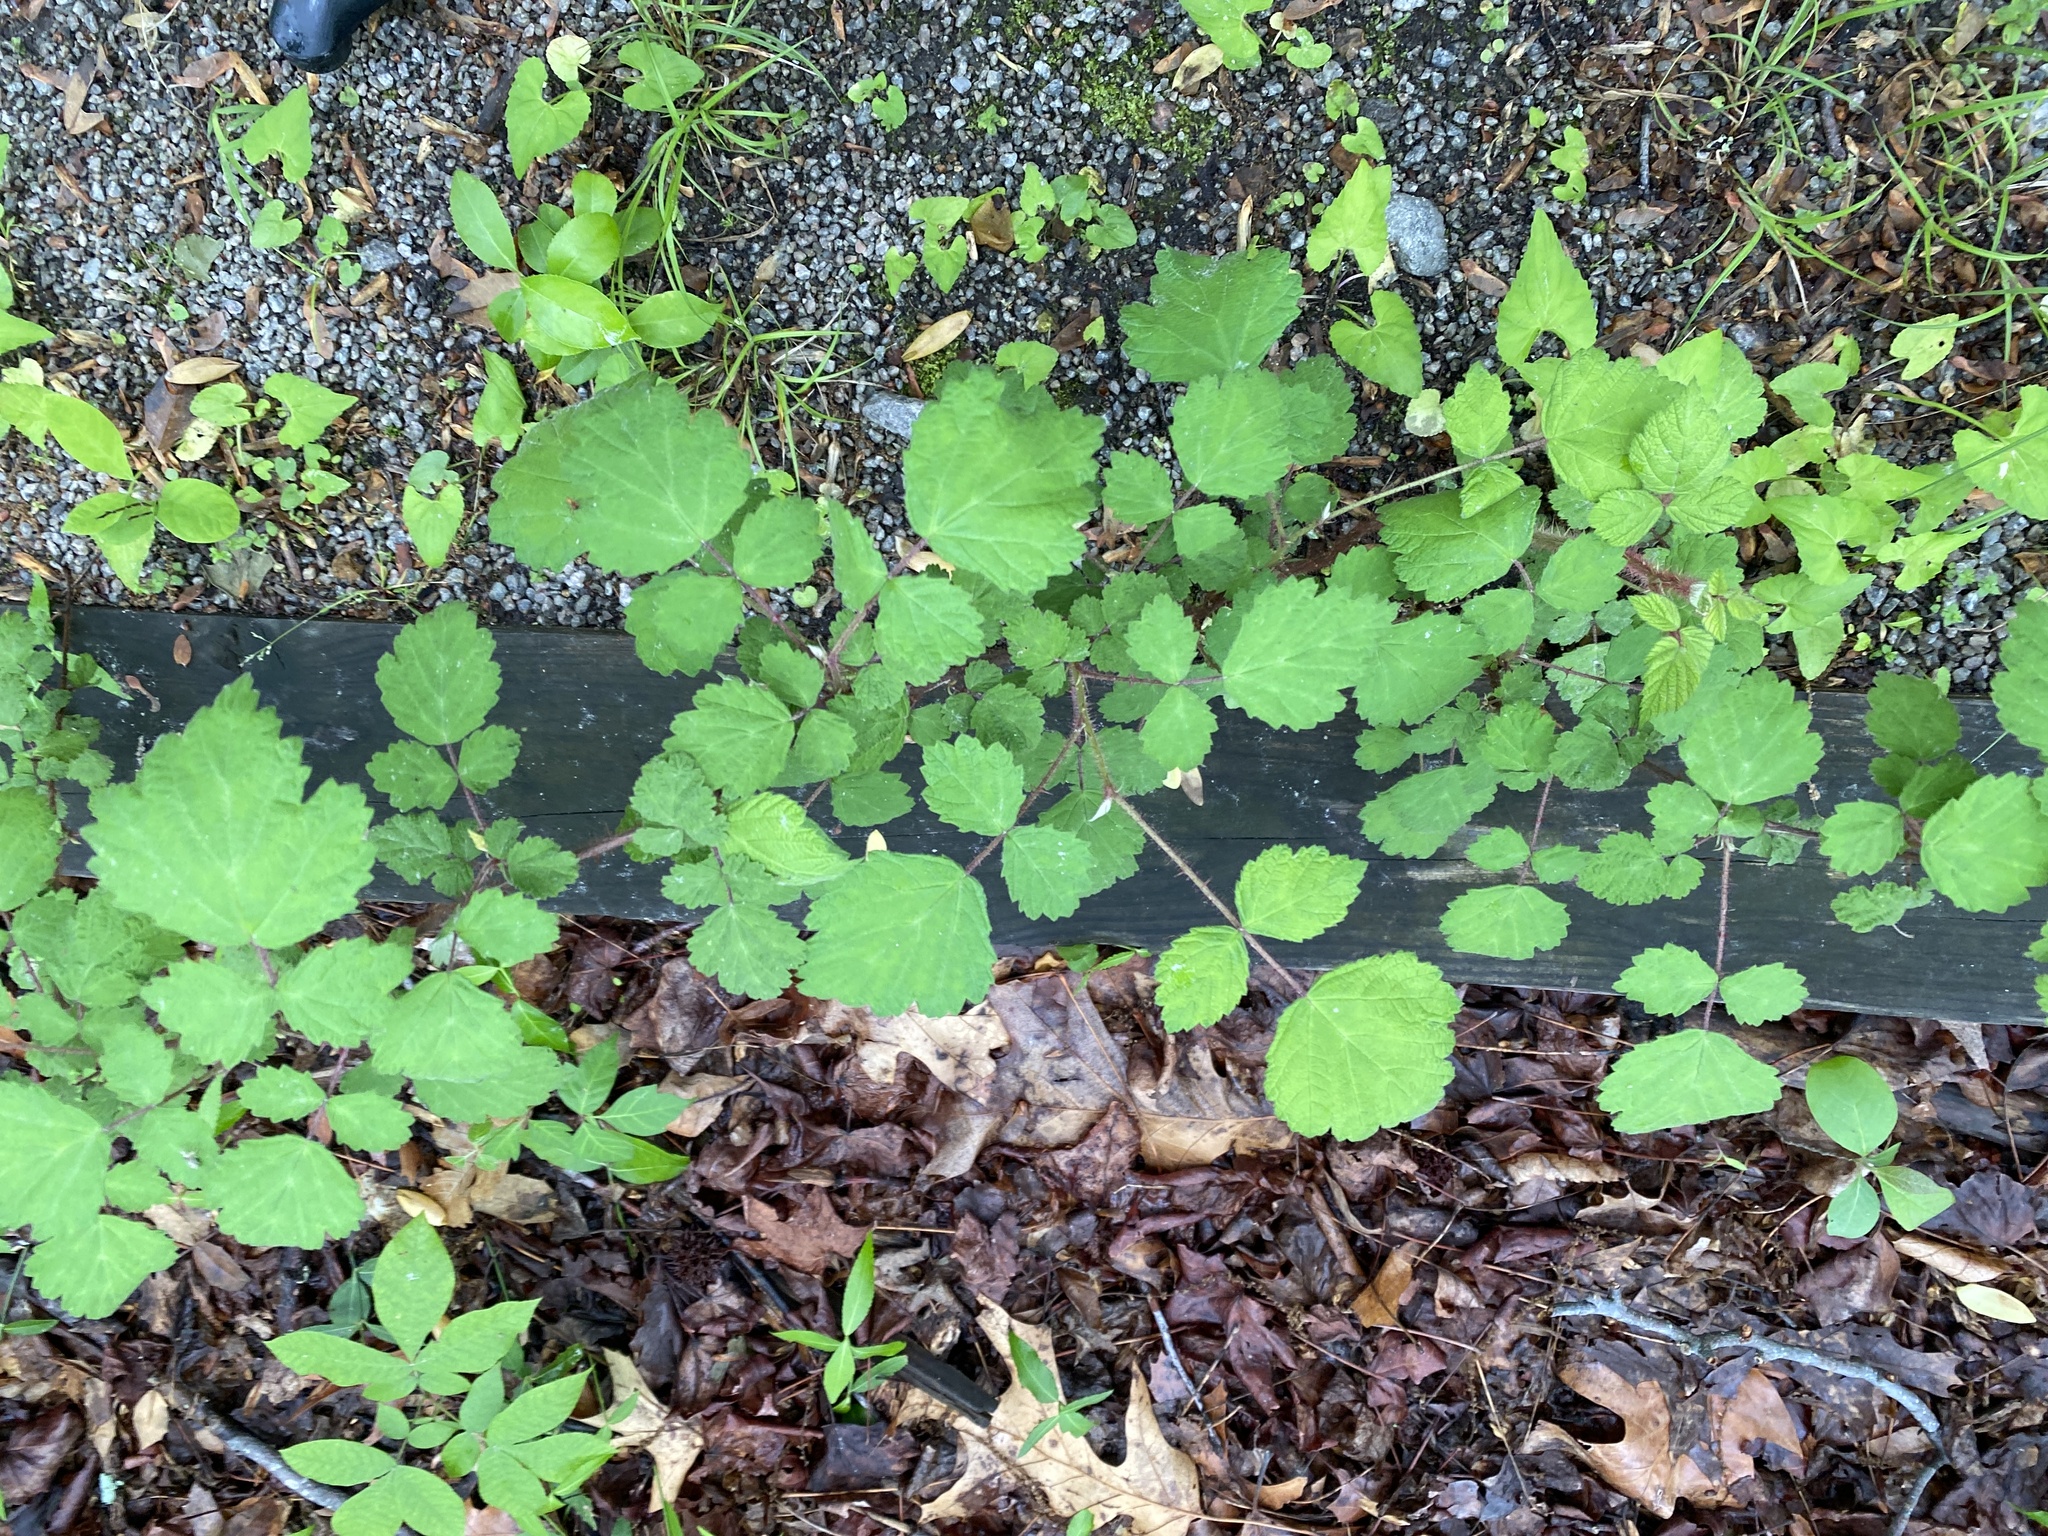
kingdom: Plantae
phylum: Tracheophyta
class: Magnoliopsida
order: Rosales
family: Rosaceae
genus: Rubus
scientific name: Rubus phoenicolasius
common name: Japanese wineberry
